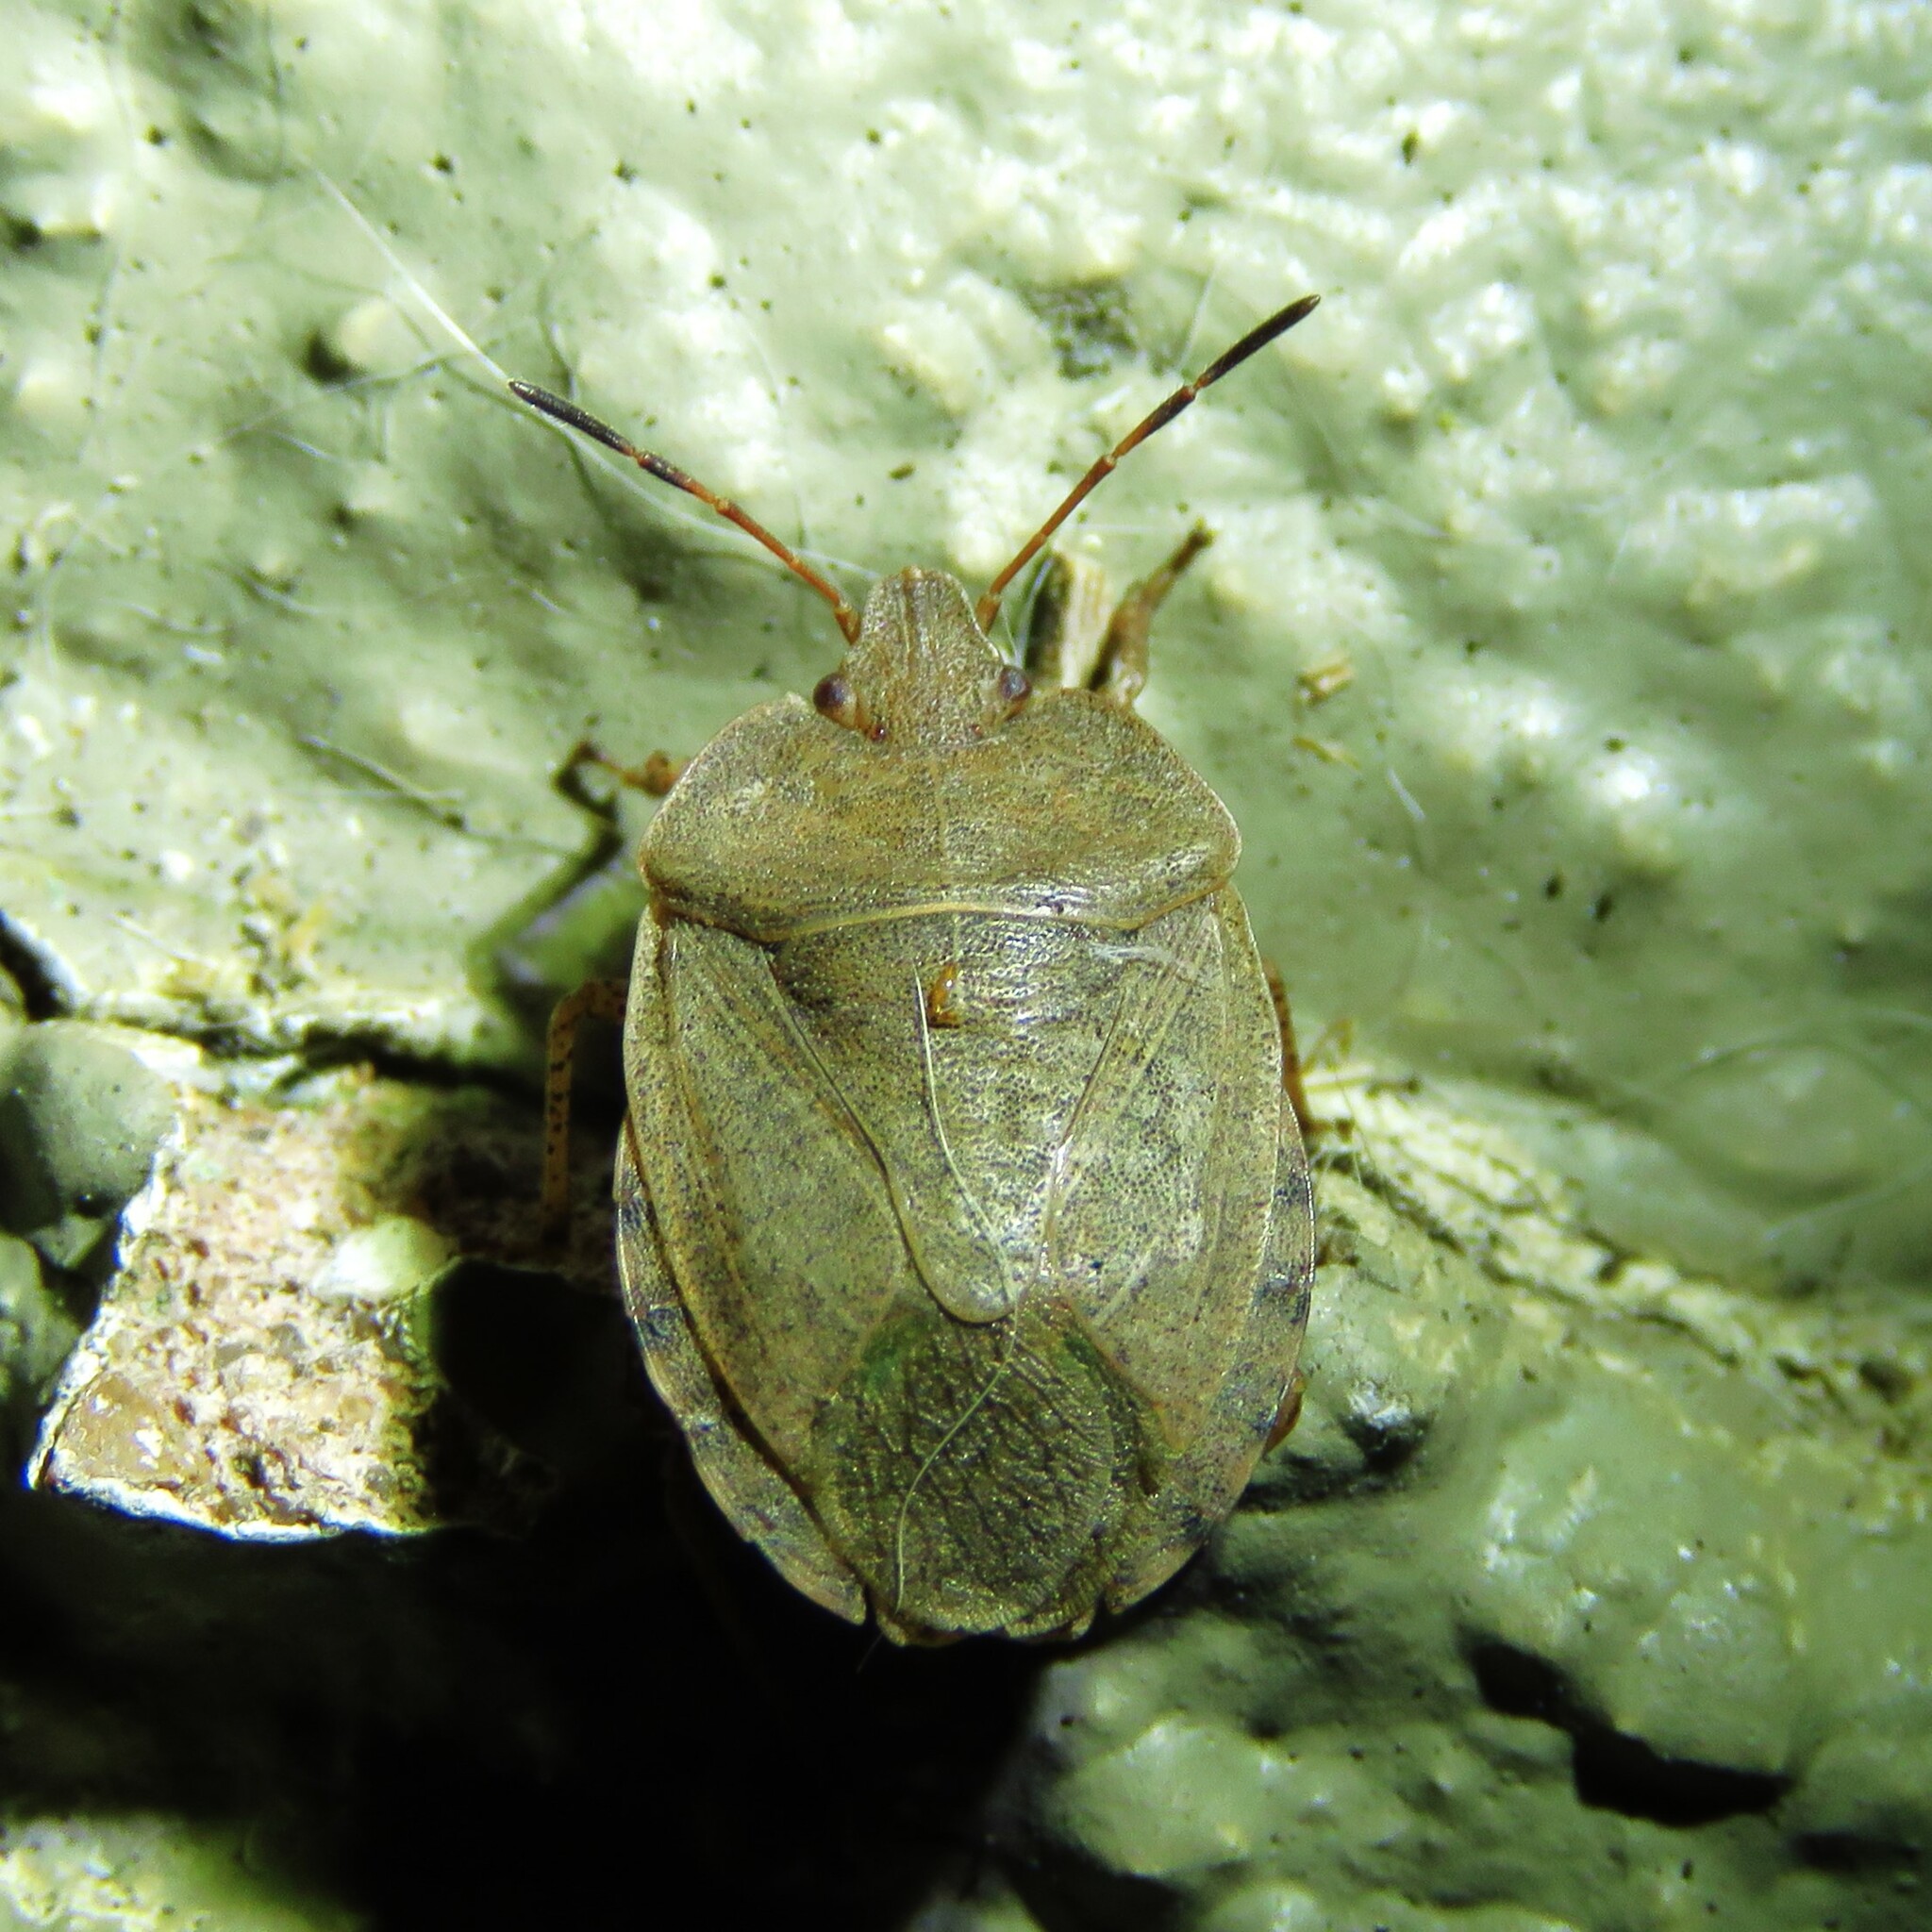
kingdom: Animalia
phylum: Arthropoda
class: Insecta
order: Hemiptera
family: Pentatomidae
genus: Menecles
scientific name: Menecles insertus
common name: Elf shoe stink bug
